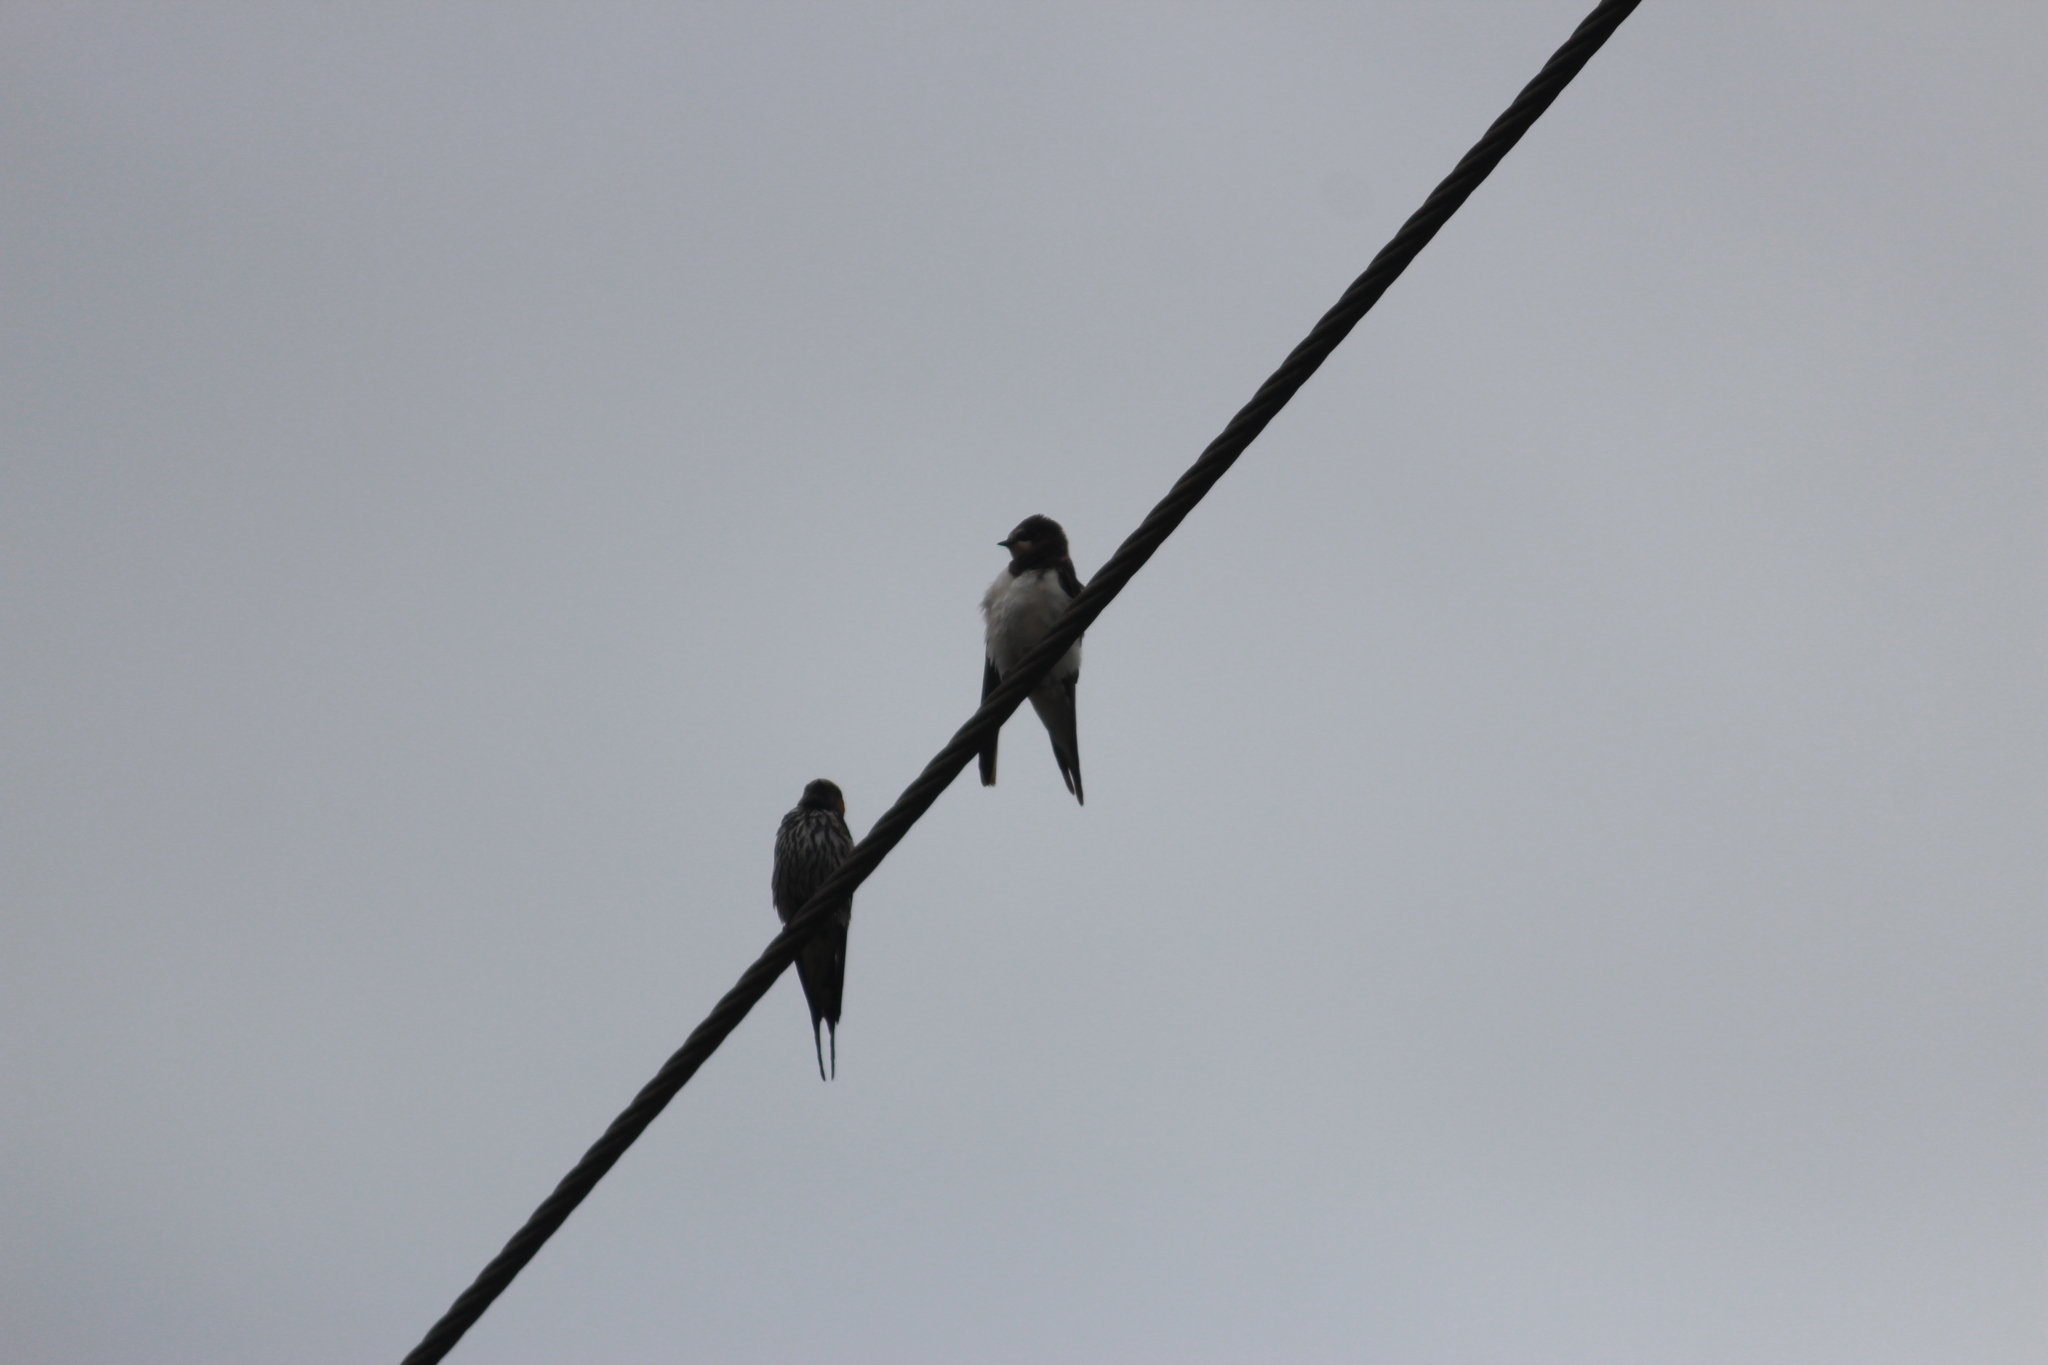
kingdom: Animalia
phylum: Chordata
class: Aves
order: Passeriformes
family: Hirundinidae
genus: Hirundo
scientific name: Hirundo rustica
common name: Barn swallow
